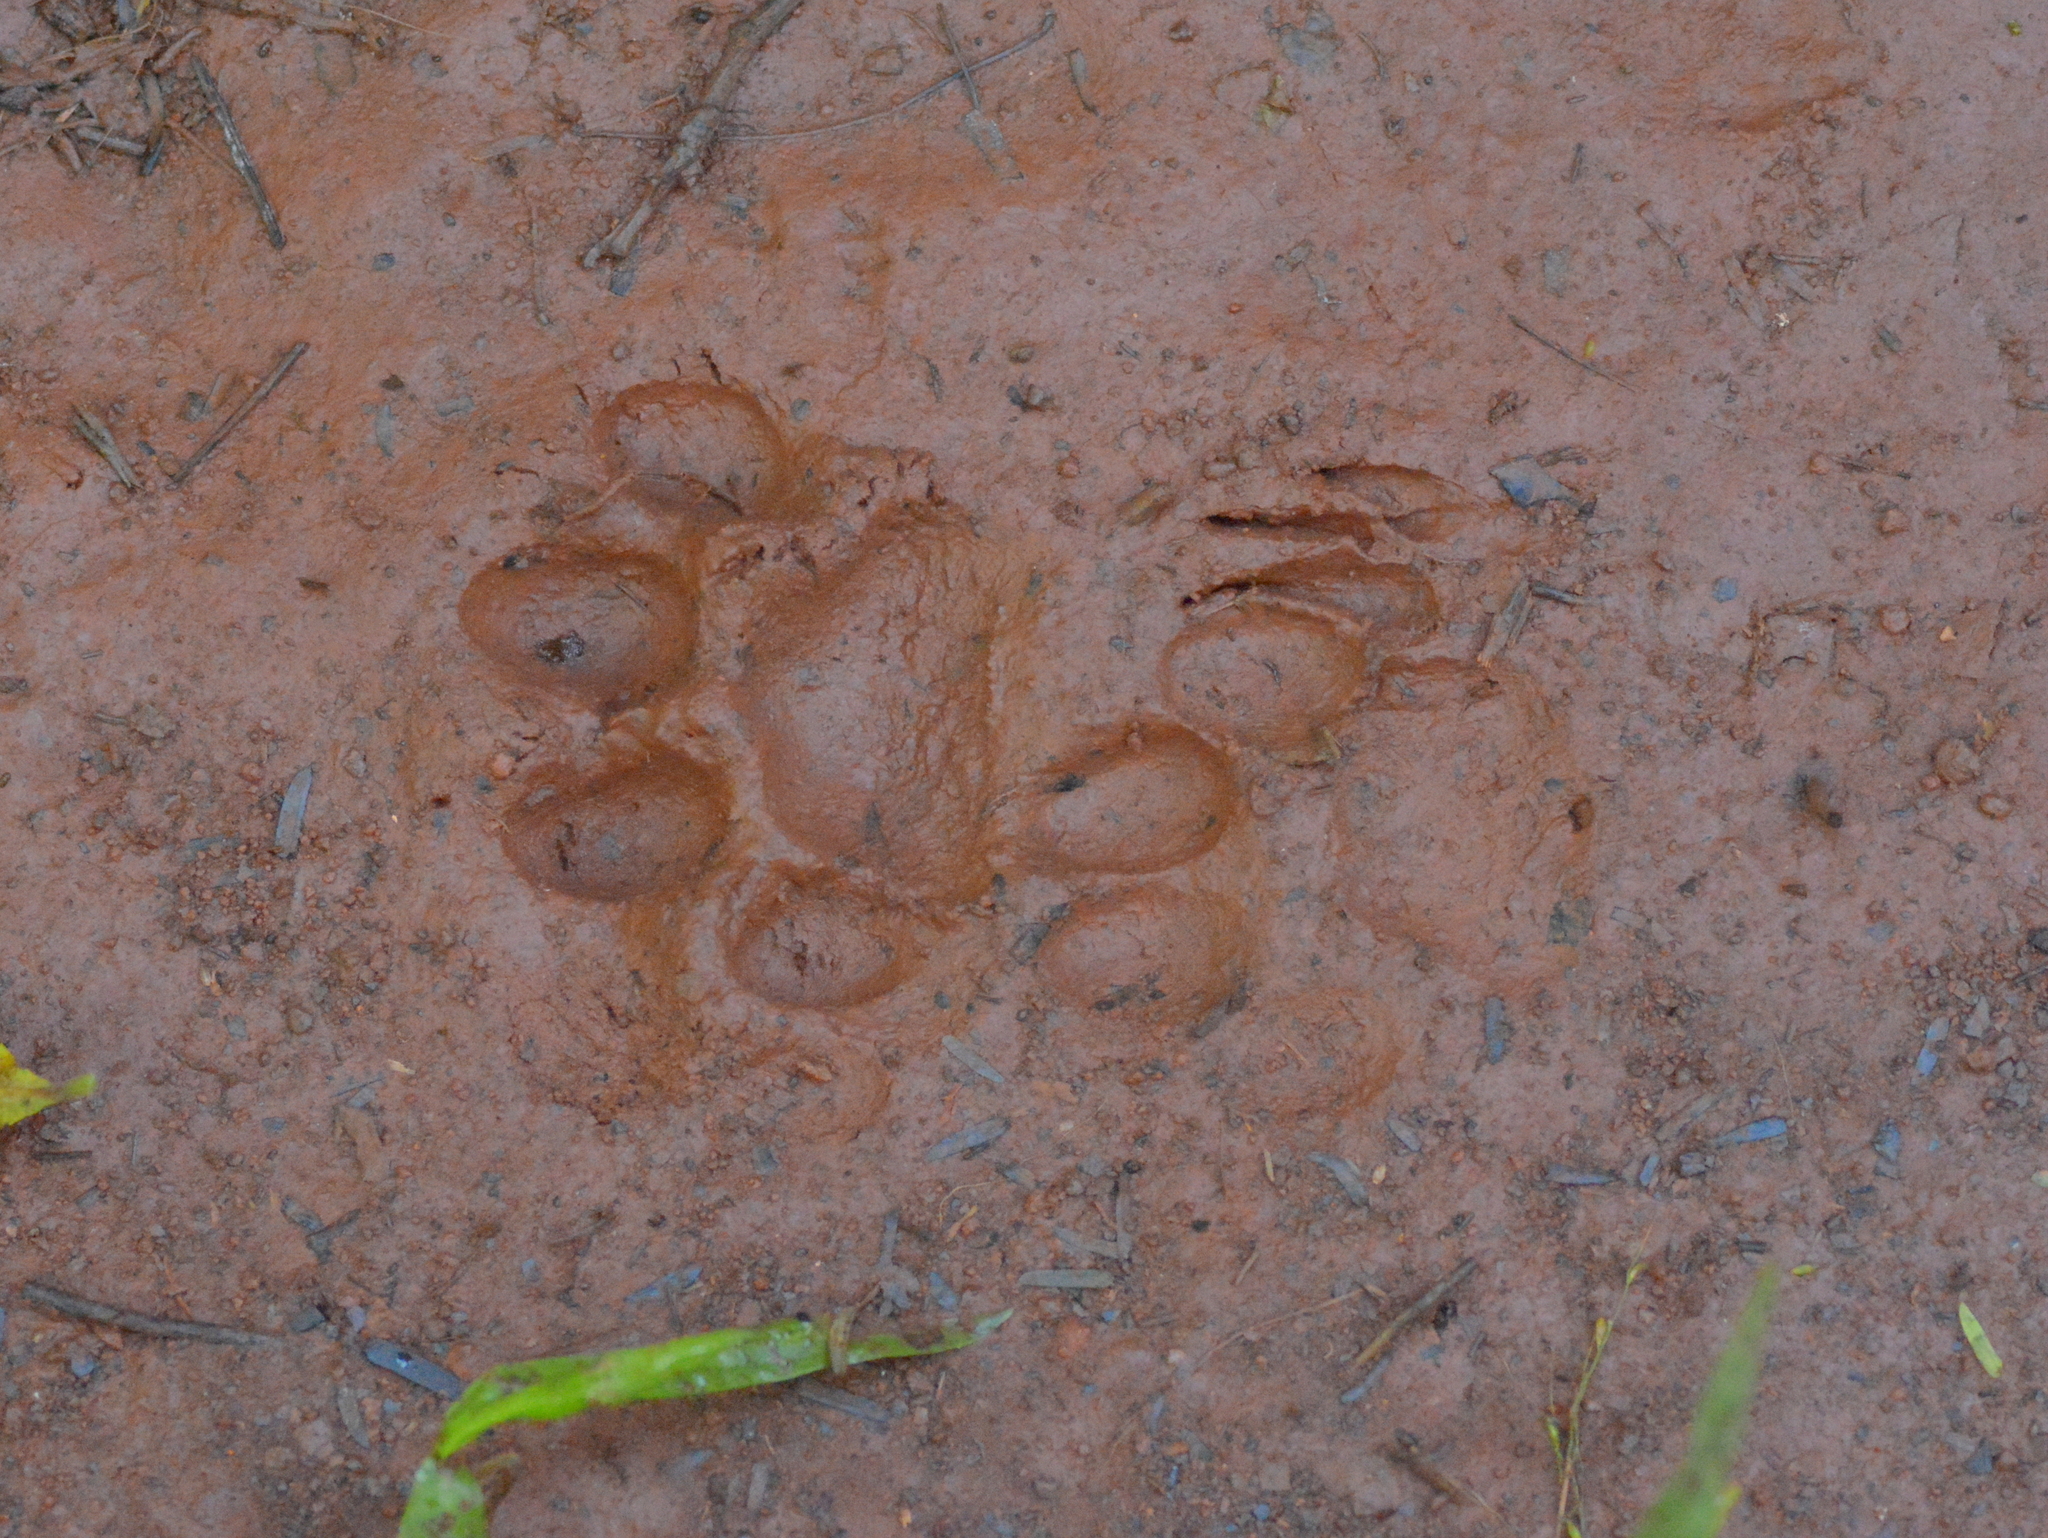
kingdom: Animalia
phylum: Chordata
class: Mammalia
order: Carnivora
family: Felidae
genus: Leopardus
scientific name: Leopardus pardalis
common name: Ocelot
